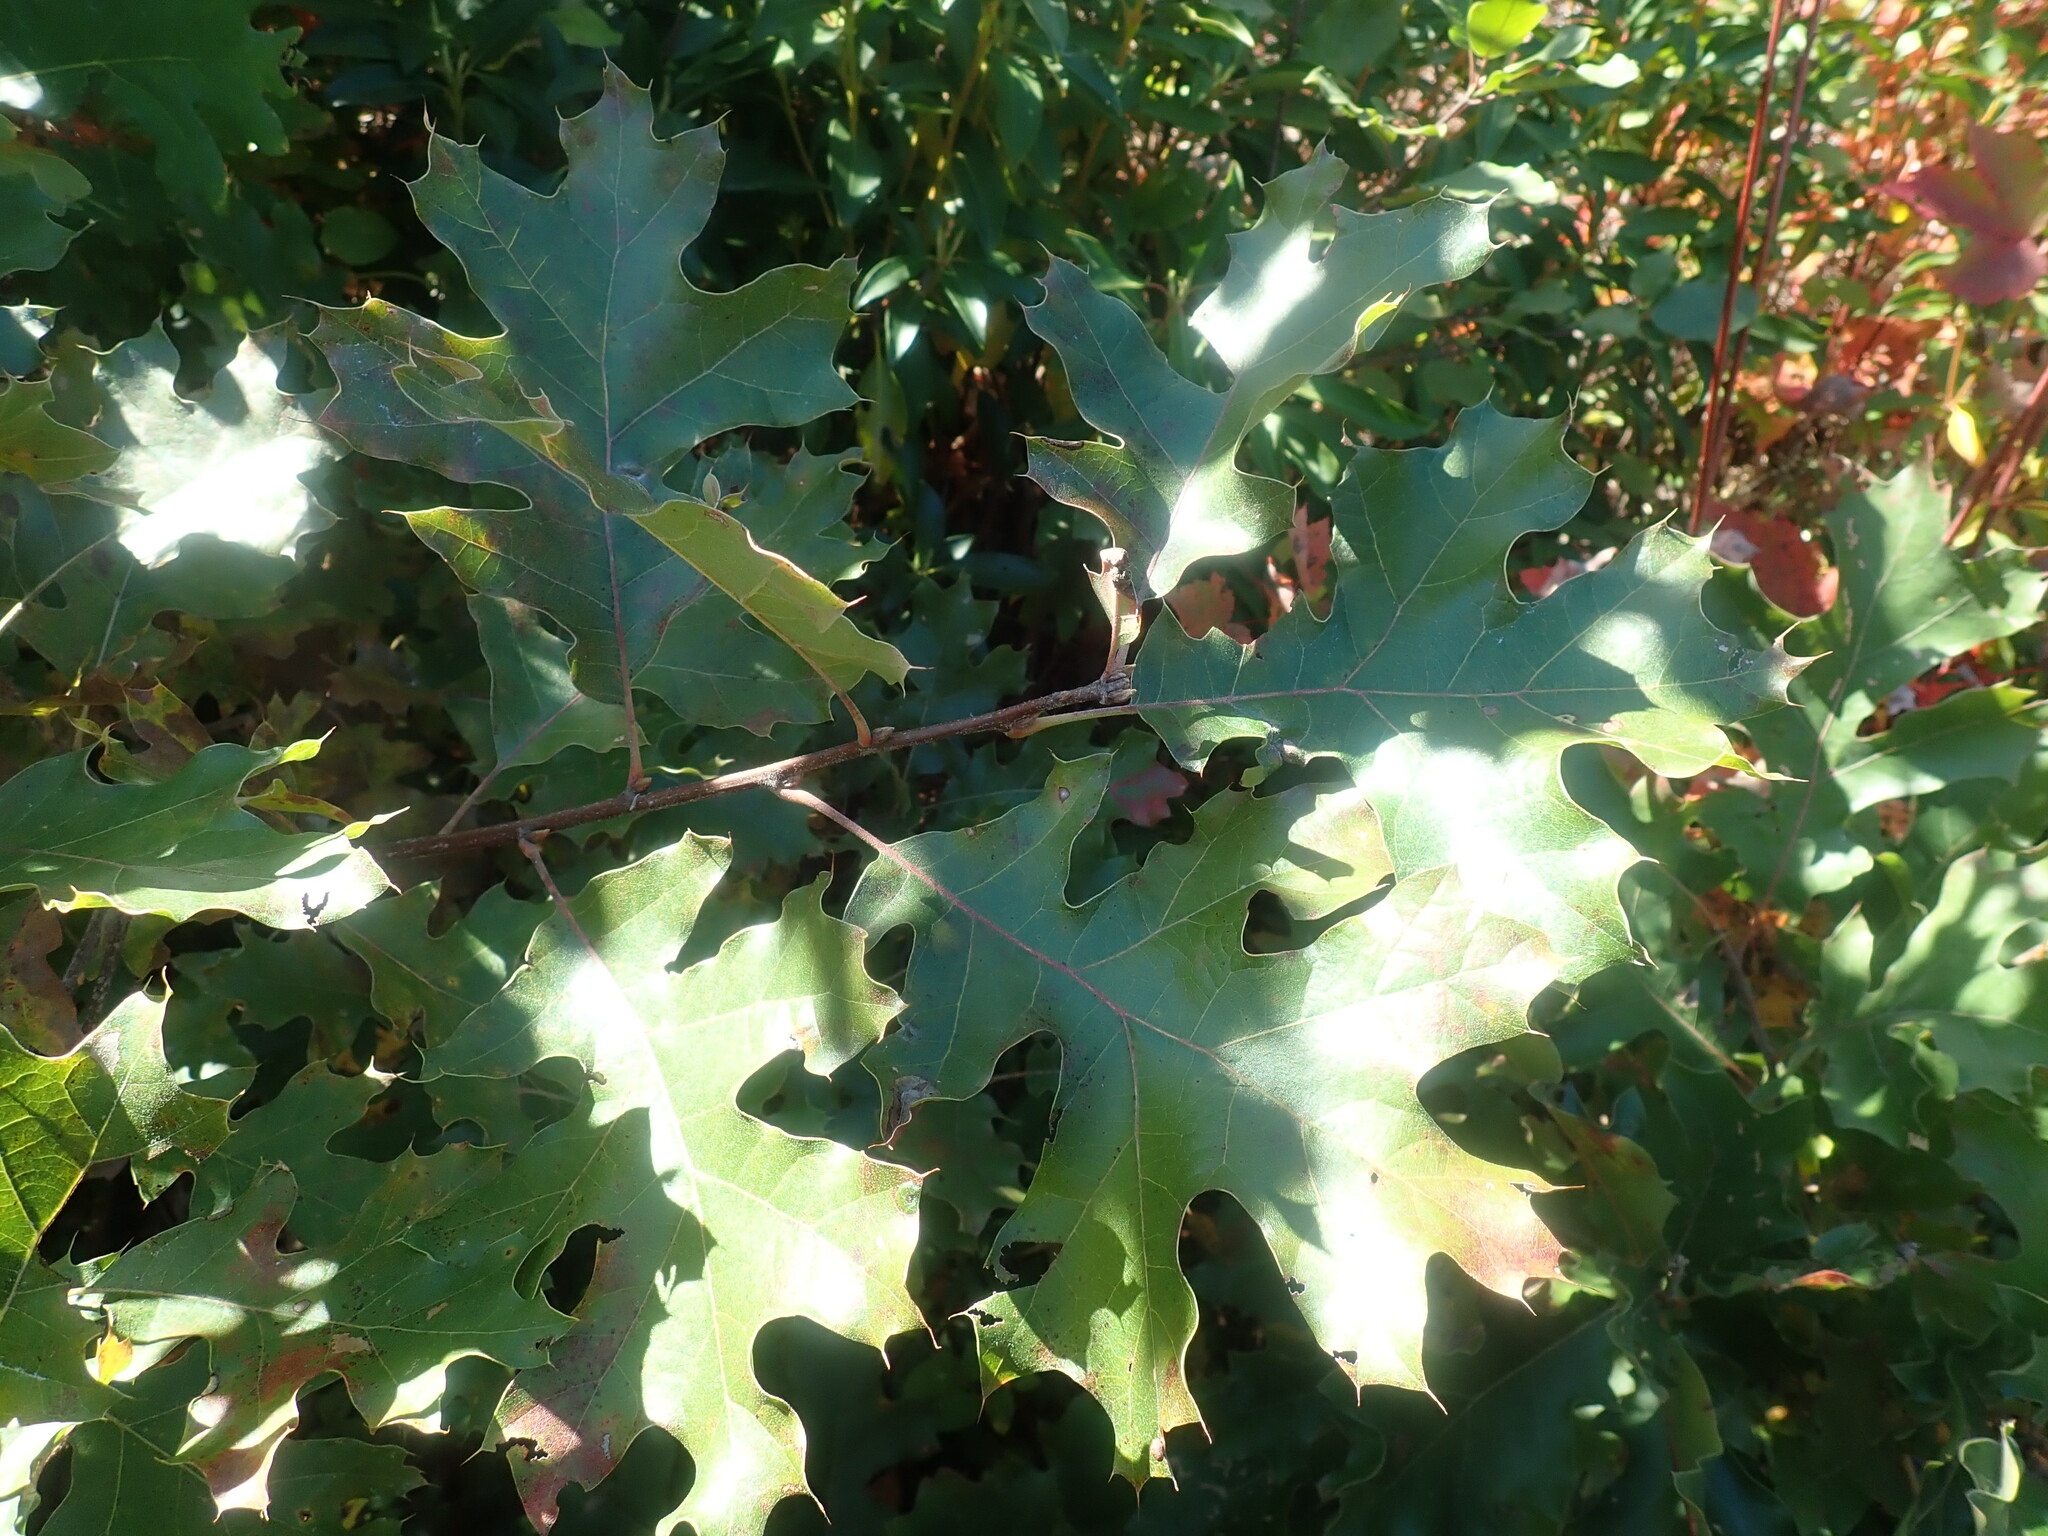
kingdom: Plantae
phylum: Tracheophyta
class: Magnoliopsida
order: Fagales
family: Fagaceae
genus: Quercus
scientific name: Quercus velutina
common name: Black oak
